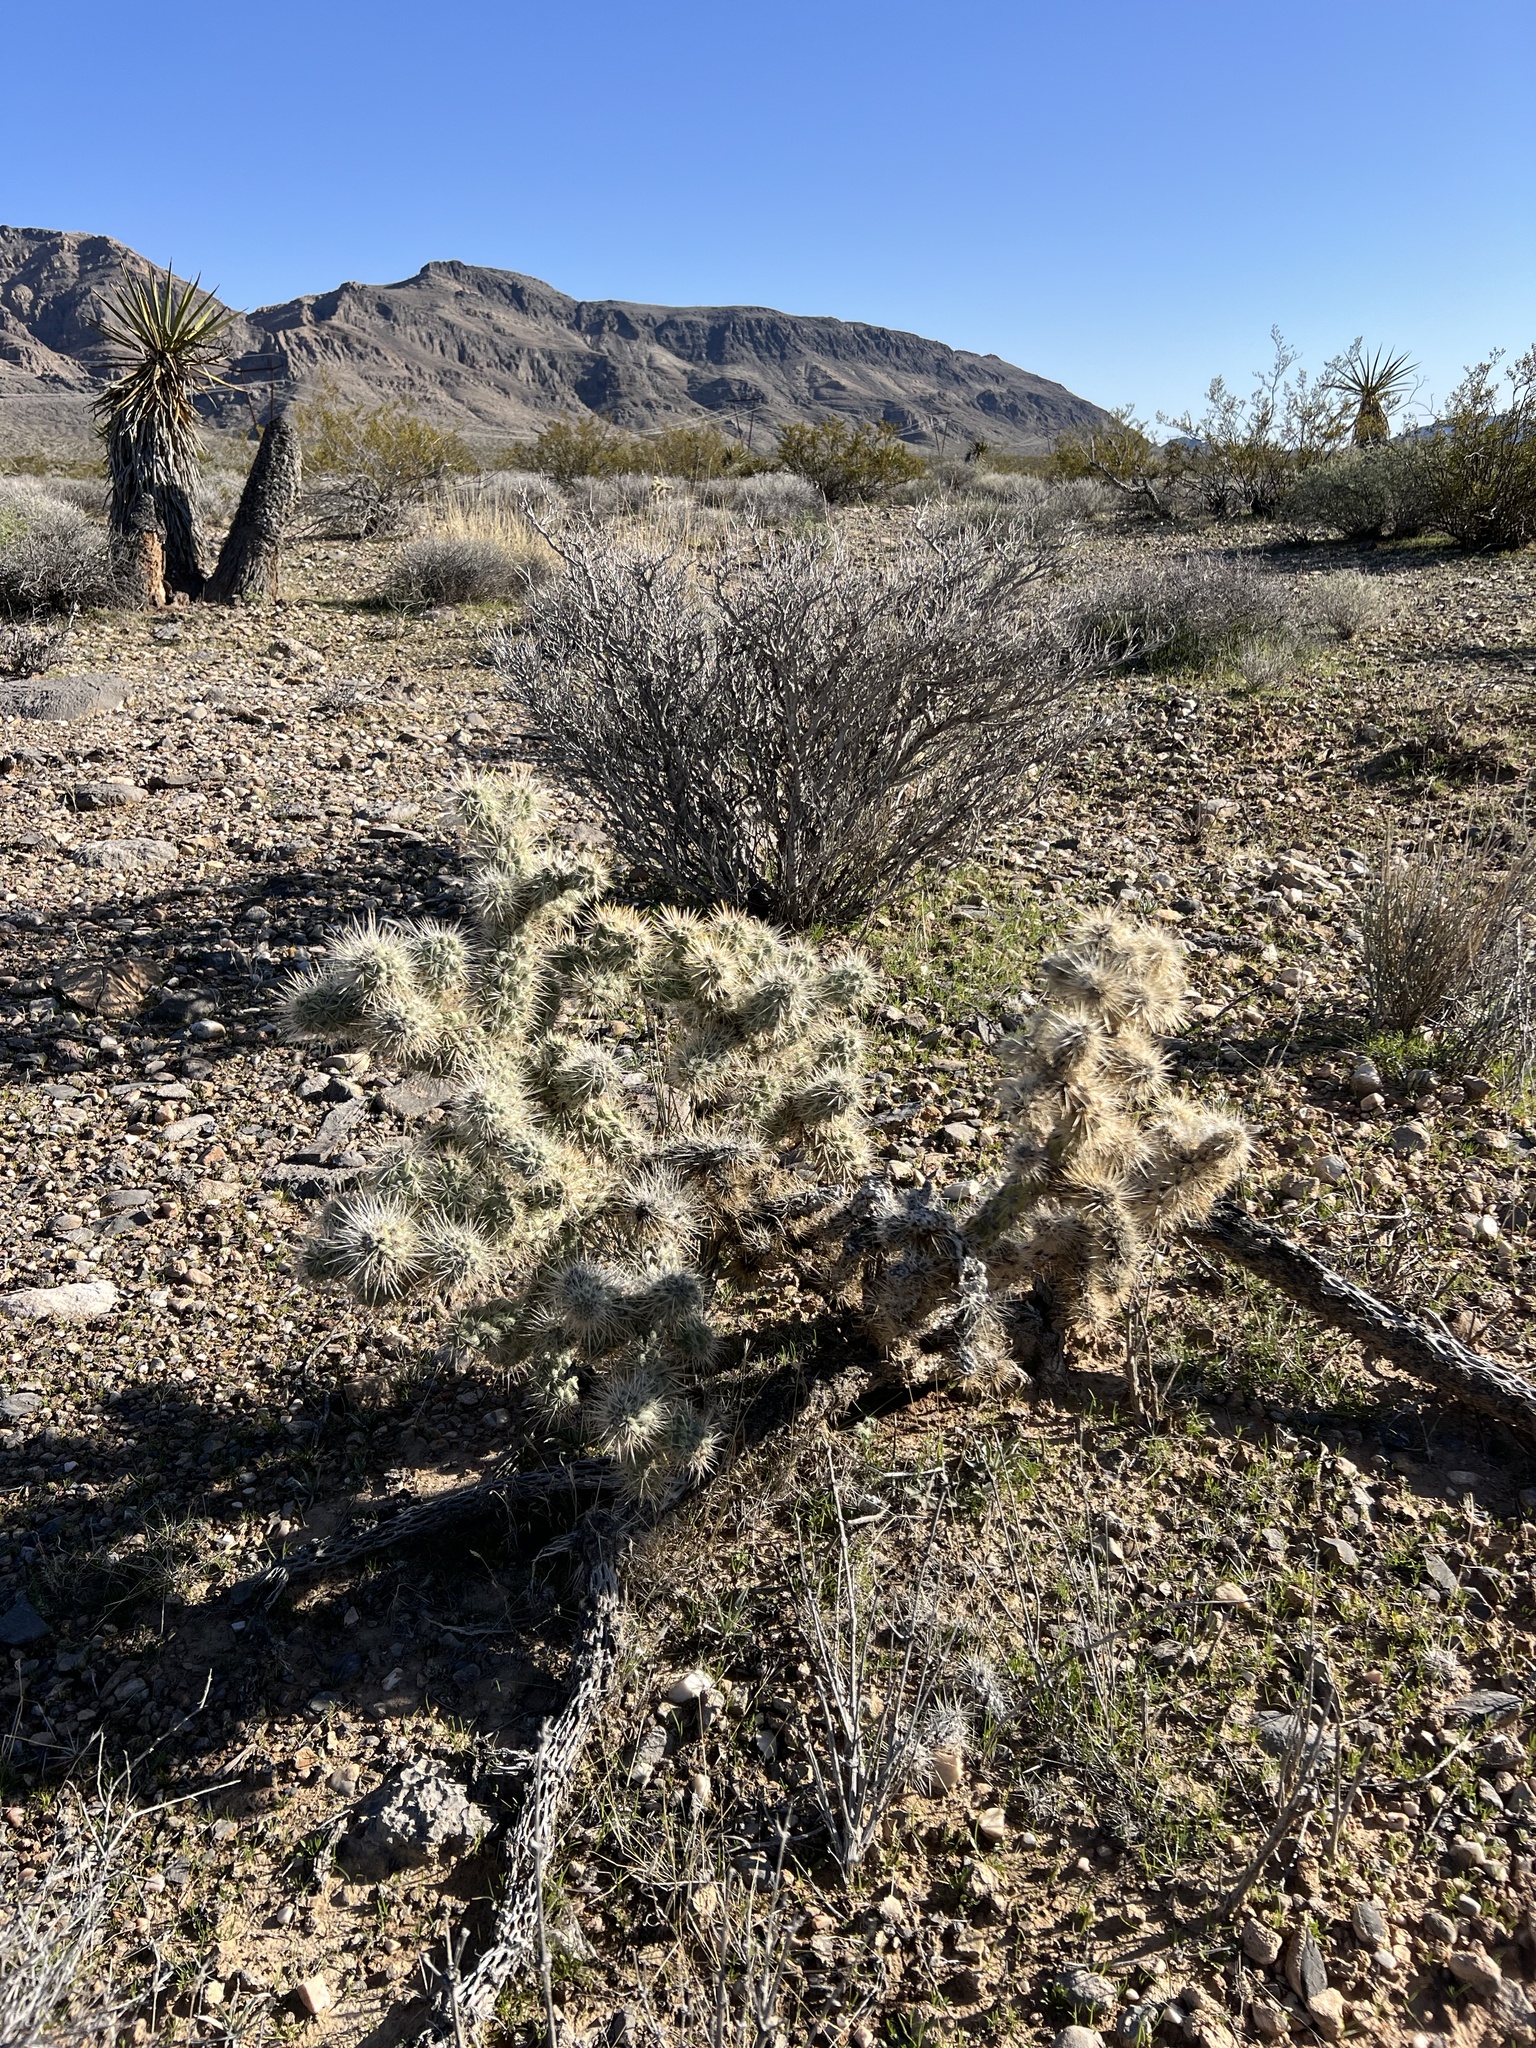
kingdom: Plantae
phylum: Tracheophyta
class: Magnoliopsida
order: Caryophyllales
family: Cactaceae
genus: Cylindropuntia
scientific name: Cylindropuntia echinocarpa
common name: Ground cholla
